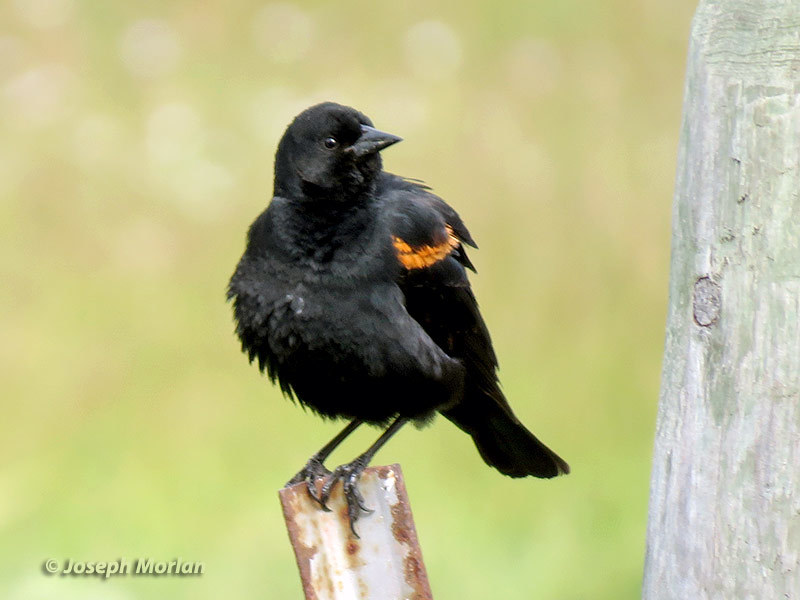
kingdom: Animalia
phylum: Chordata
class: Aves
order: Passeriformes
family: Icteridae
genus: Agelaius
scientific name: Agelaius phoeniceus
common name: Red-winged blackbird
